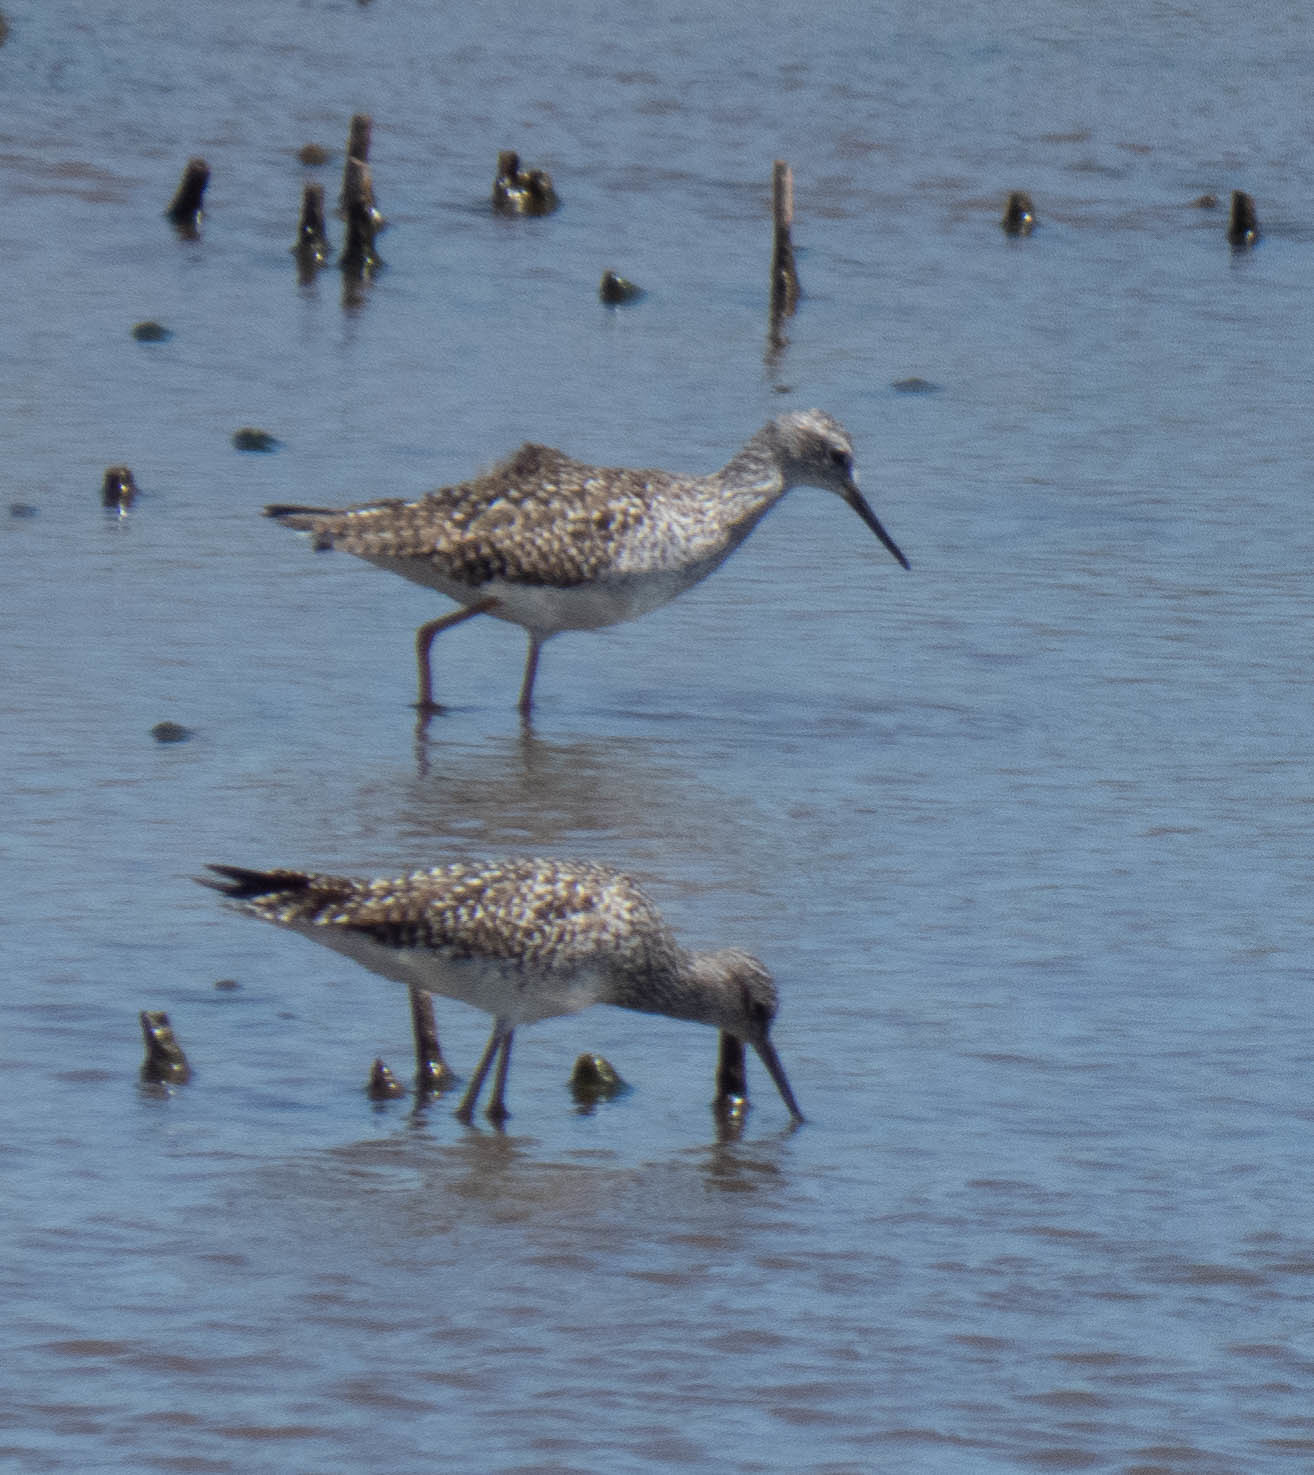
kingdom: Animalia
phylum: Chordata
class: Aves
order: Charadriiformes
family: Scolopacidae
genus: Tringa
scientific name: Tringa melanoleuca
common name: Greater yellowlegs
